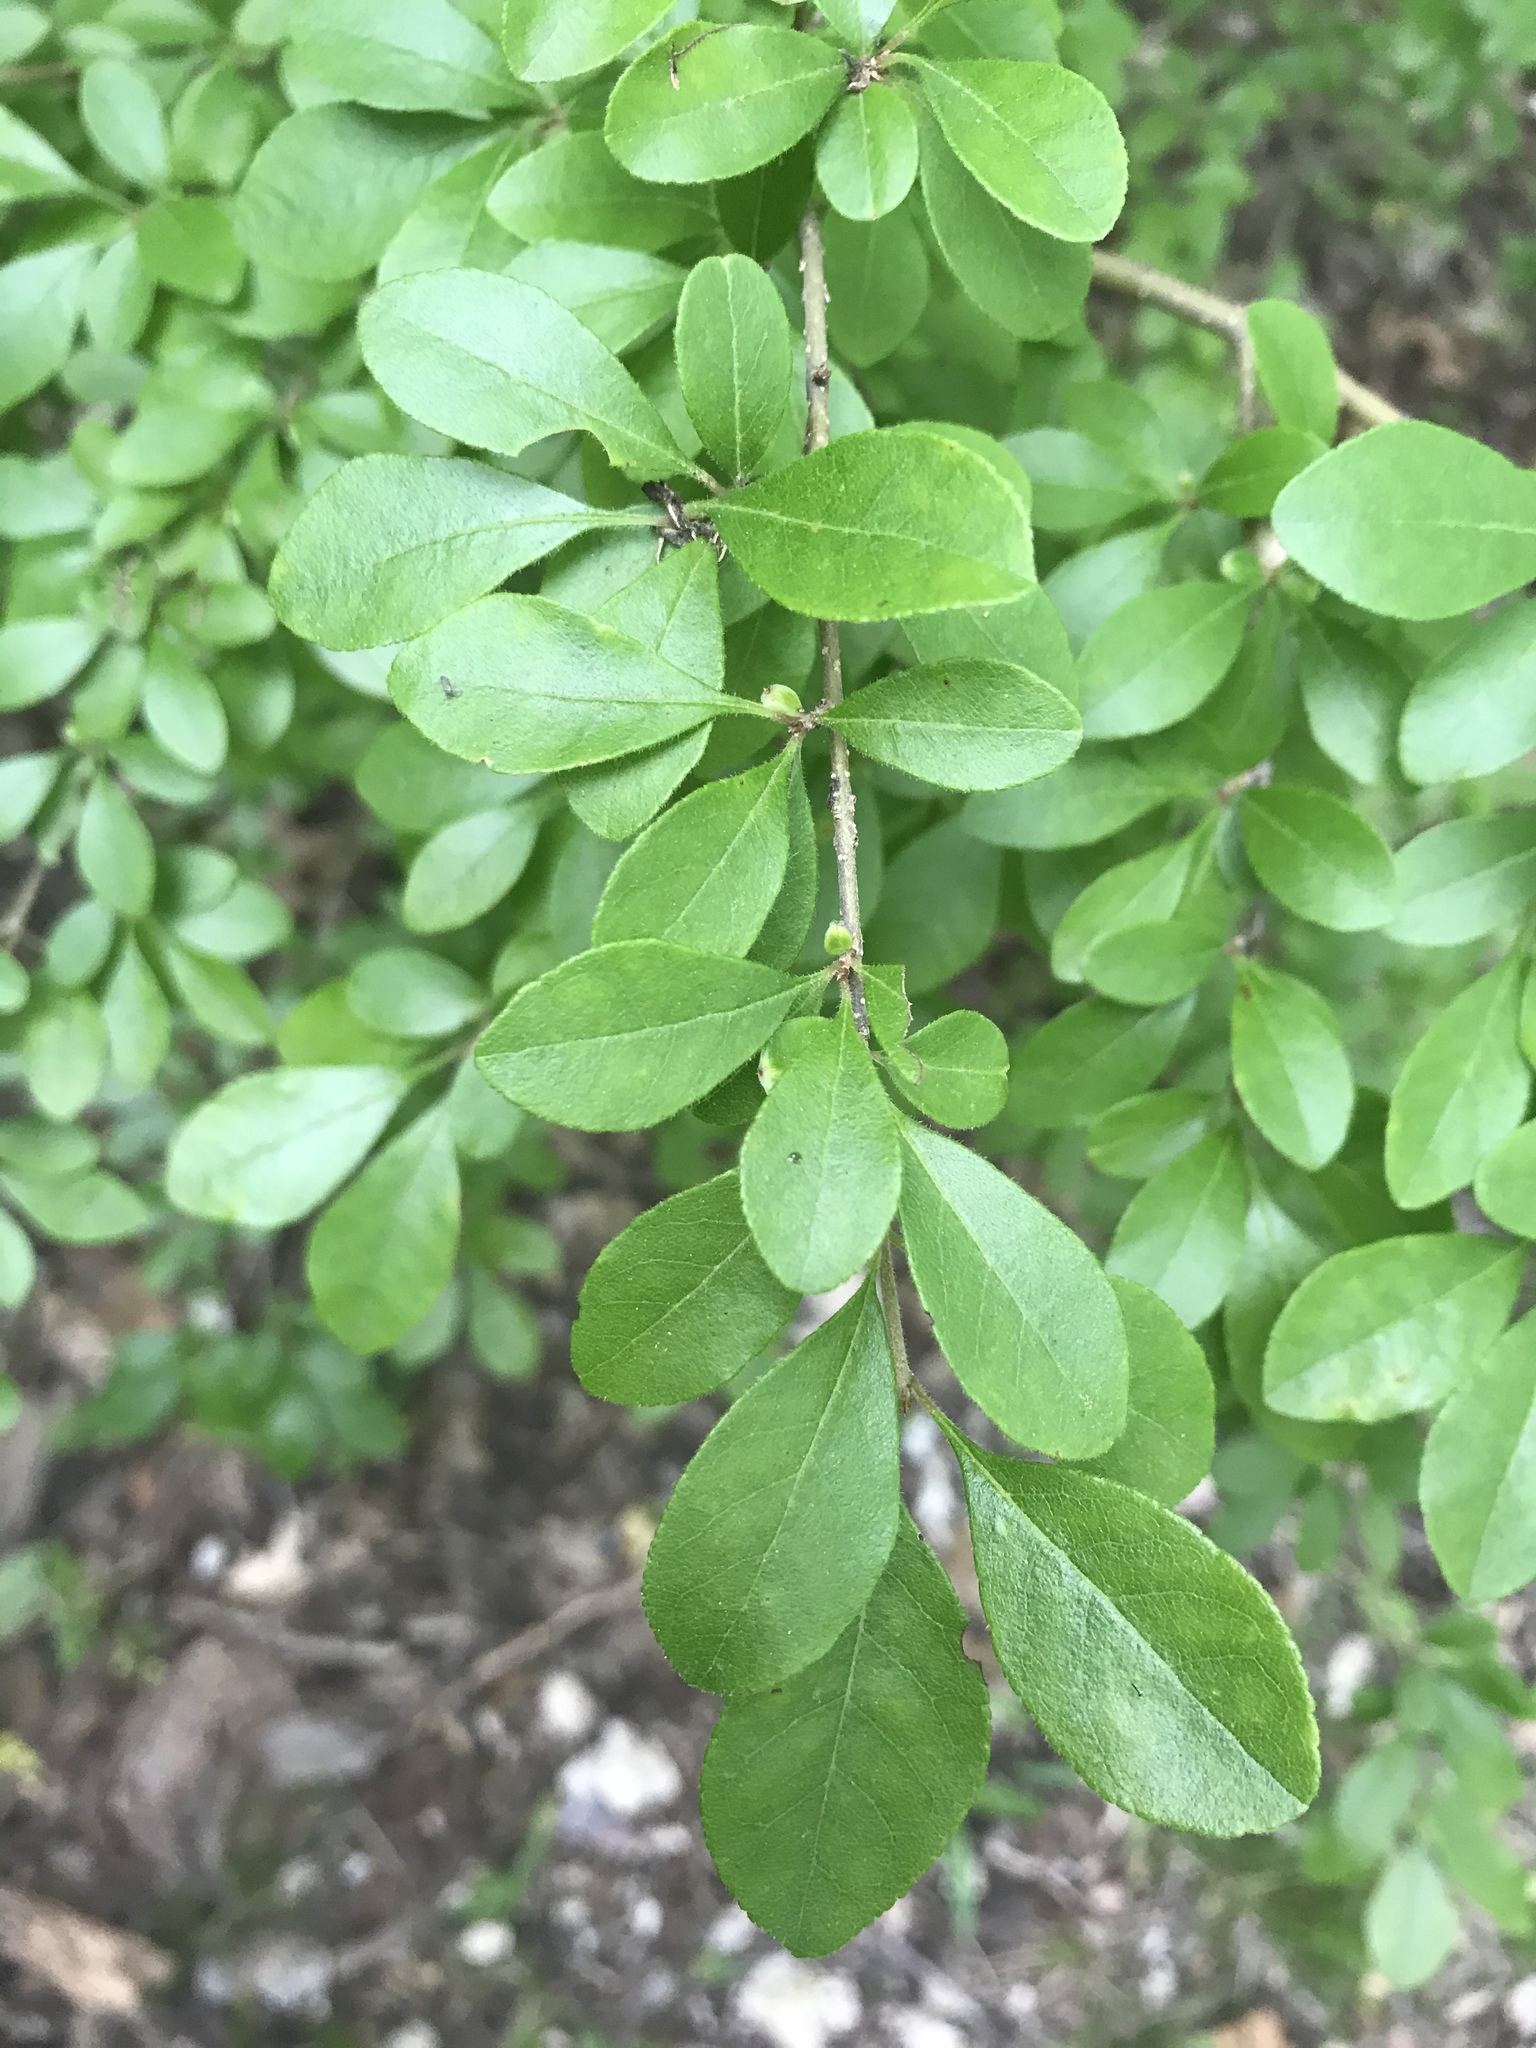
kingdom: Plantae
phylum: Tracheophyta
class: Magnoliopsida
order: Aquifoliales
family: Aquifoliaceae
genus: Ilex
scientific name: Ilex decidua
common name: Possum-haw
